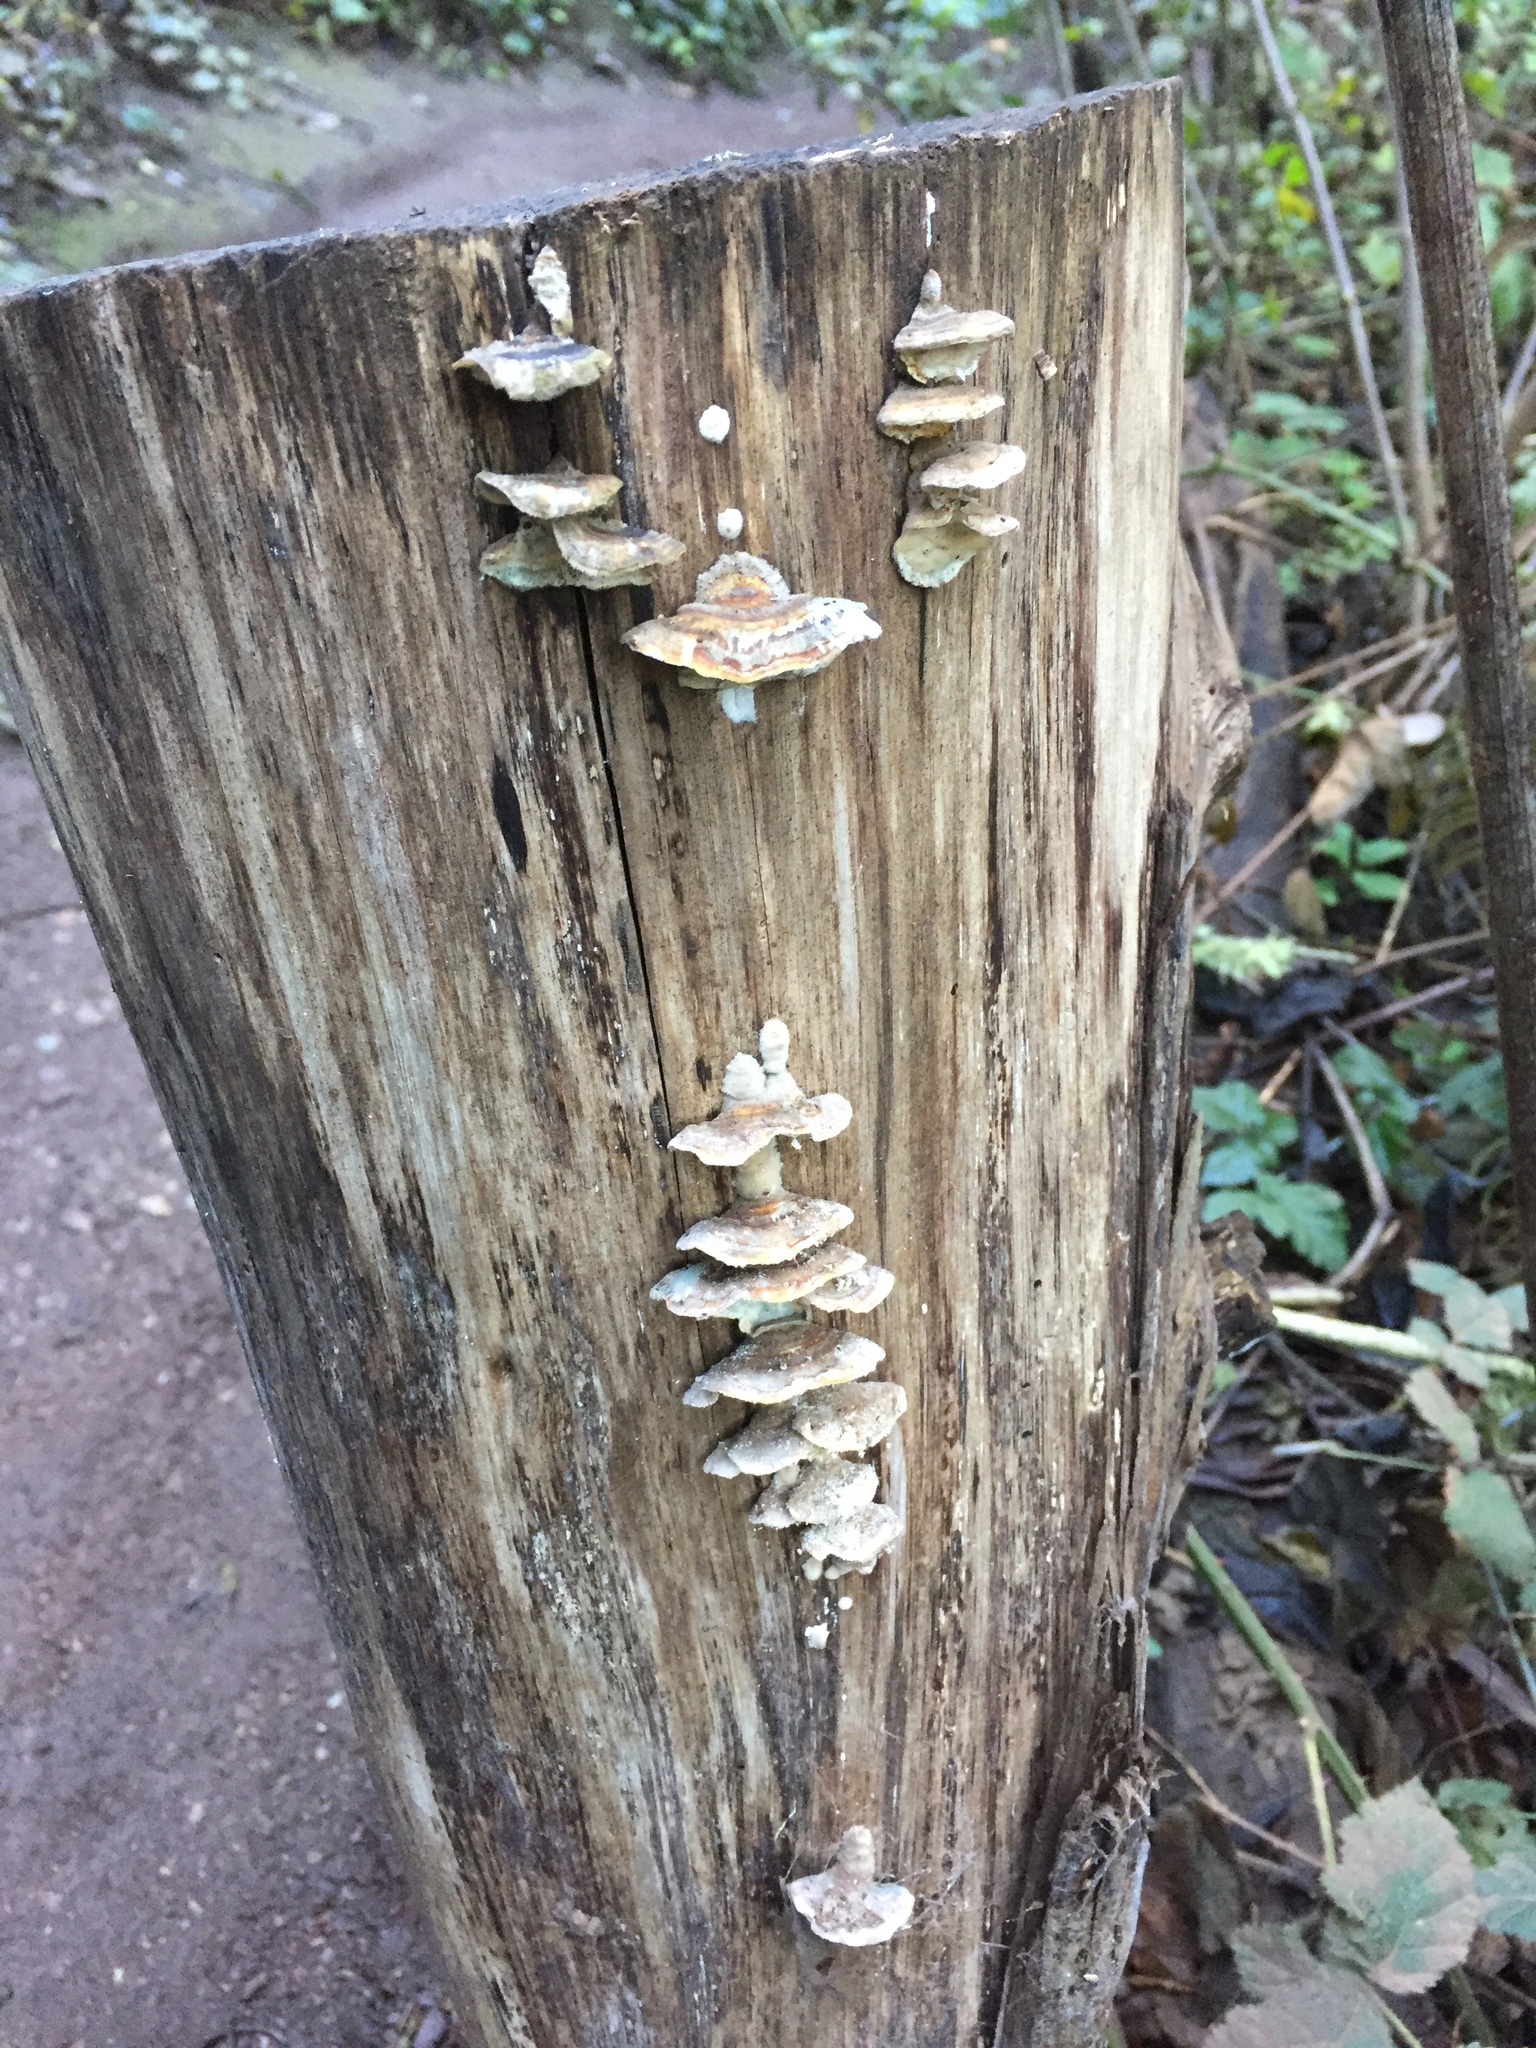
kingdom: Fungi
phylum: Basidiomycota
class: Agaricomycetes
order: Polyporales
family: Polyporaceae
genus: Trametes
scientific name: Trametes versicolor
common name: Turkeytail
